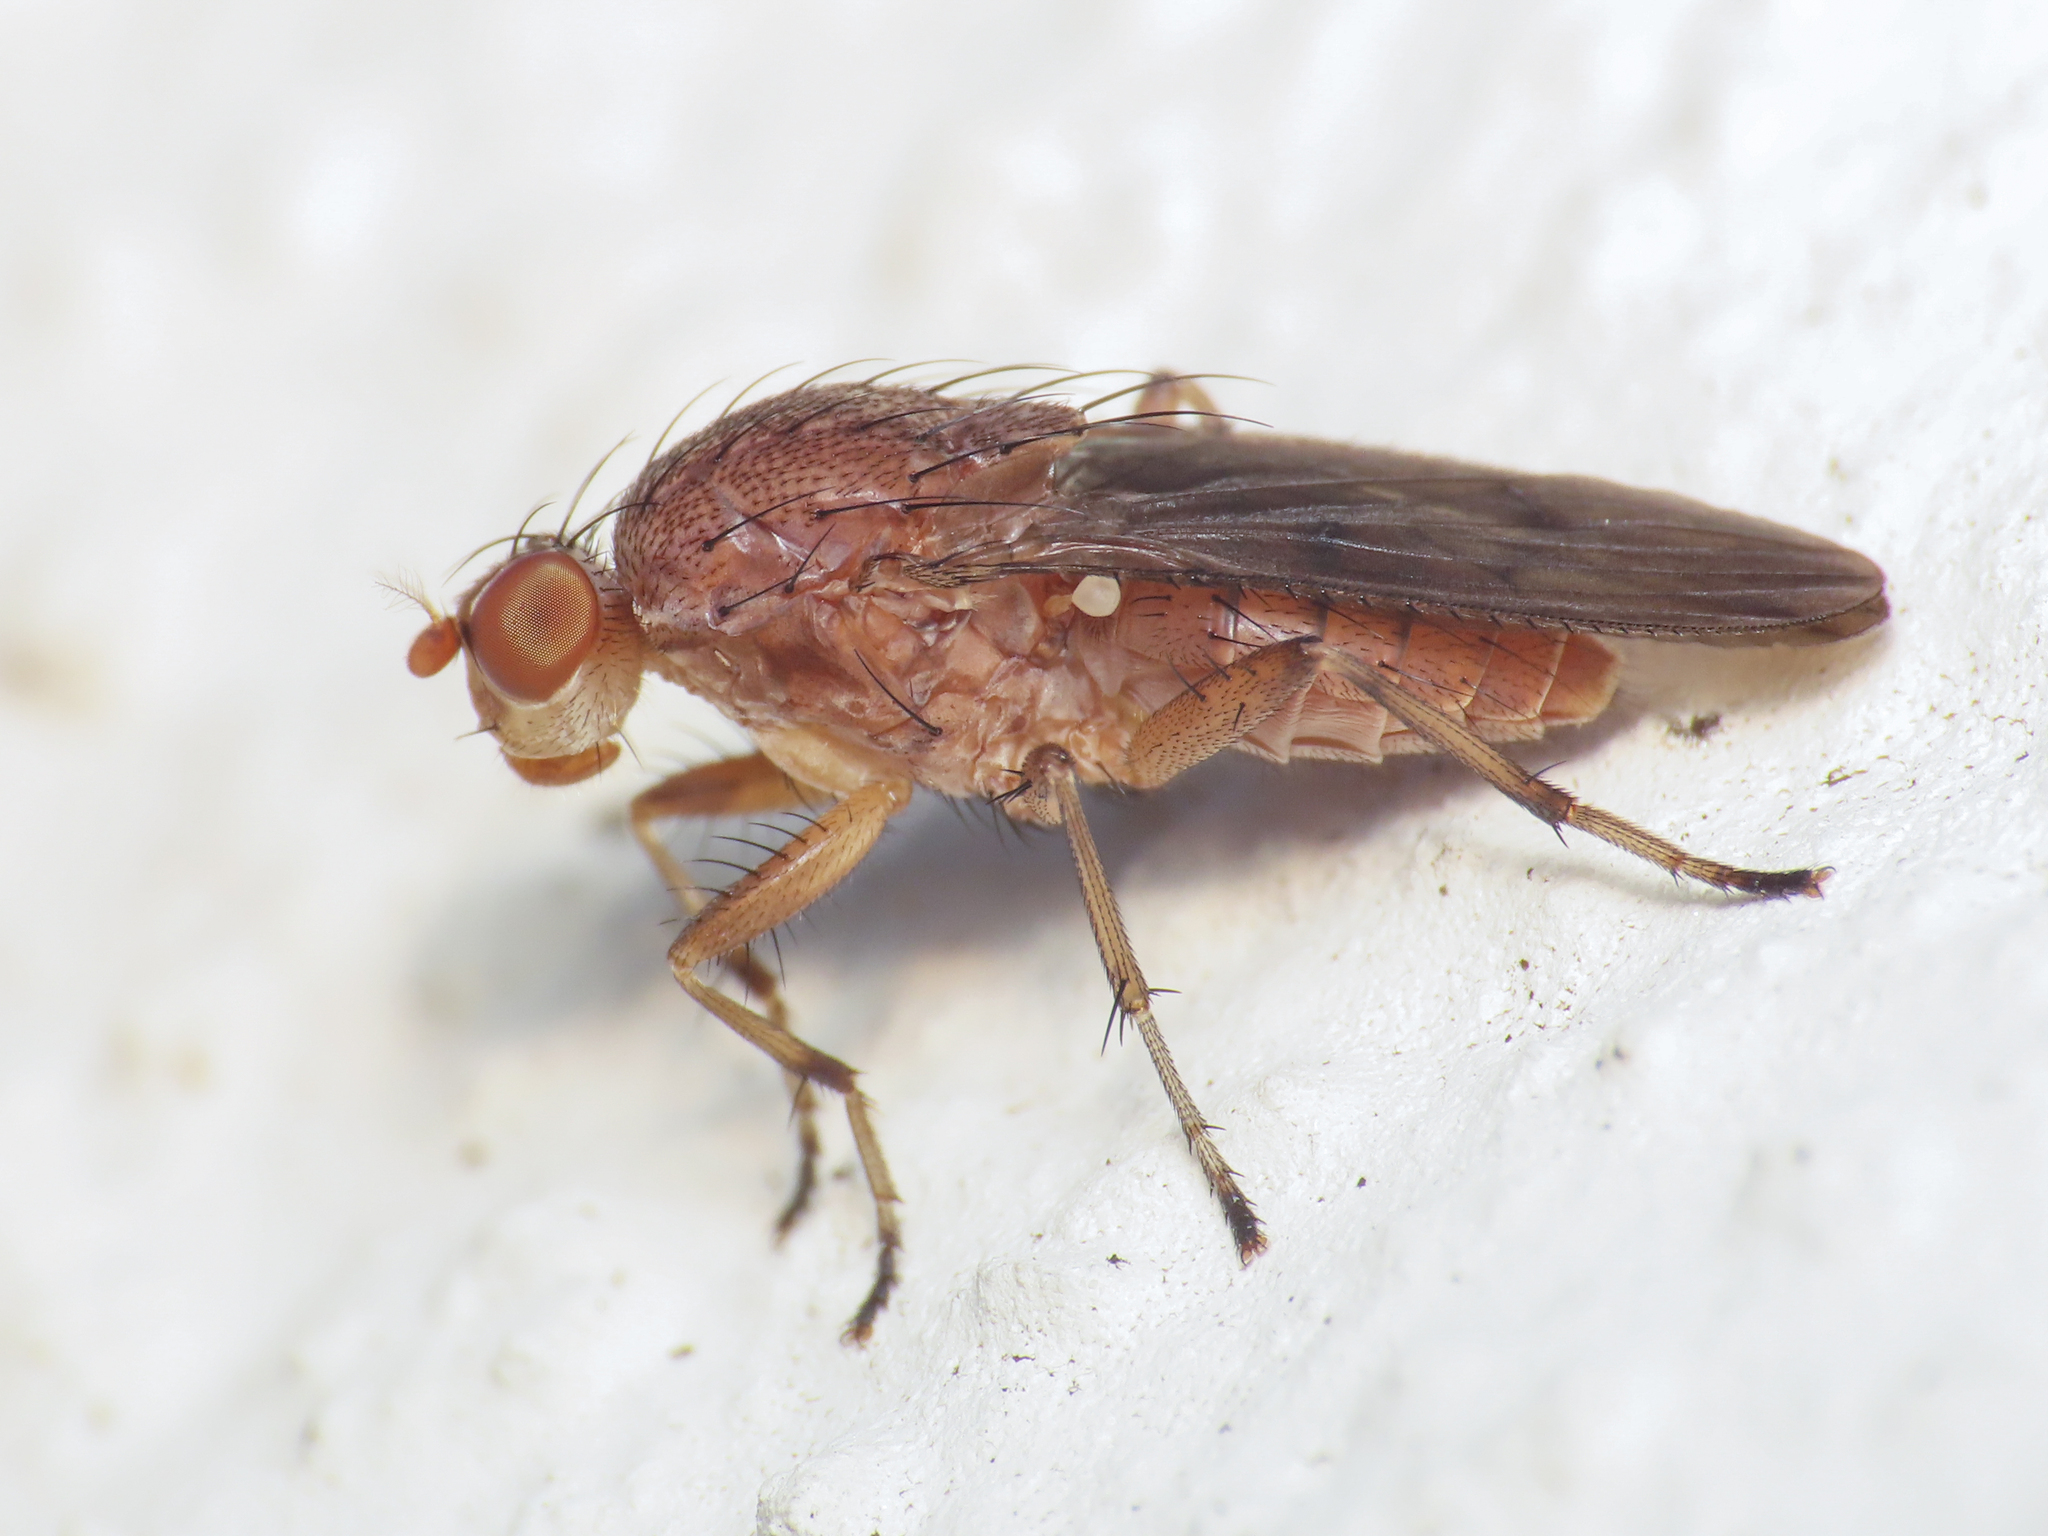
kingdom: Animalia
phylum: Arthropoda
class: Insecta
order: Diptera
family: Heleomyzidae
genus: Suillia
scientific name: Suillia affinis
